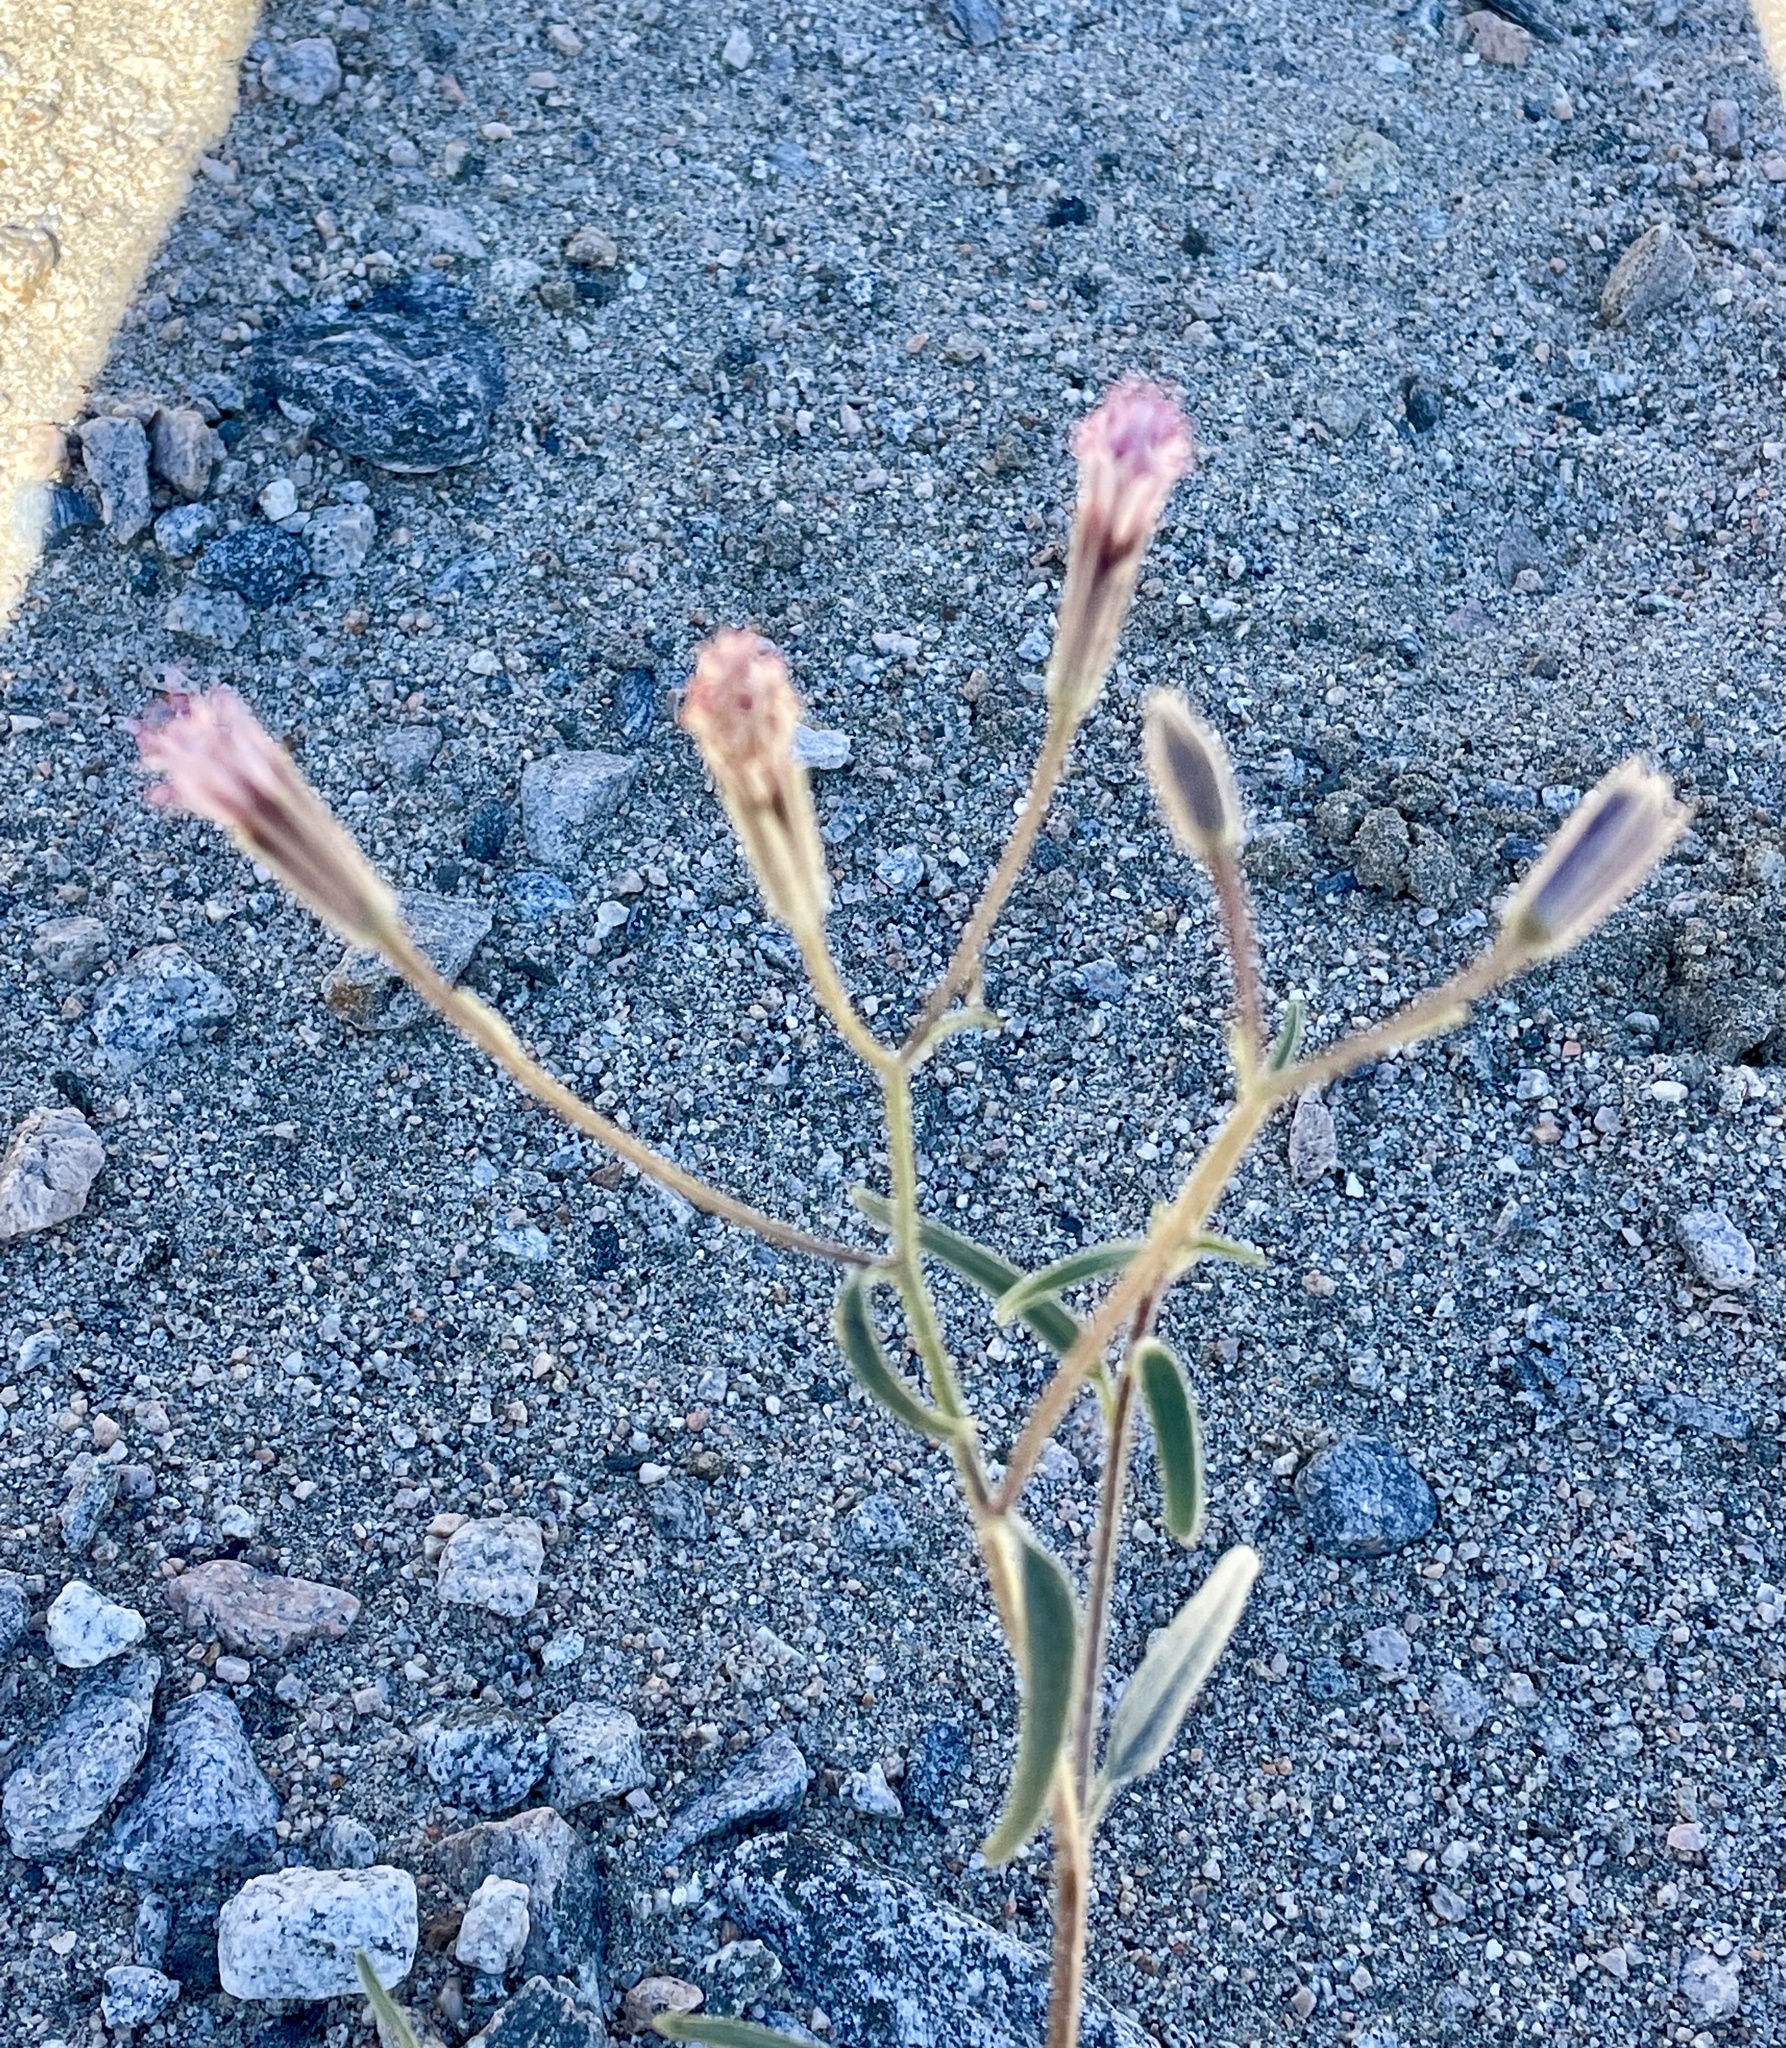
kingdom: Plantae
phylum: Tracheophyta
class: Magnoliopsida
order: Asterales
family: Asteraceae
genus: Palafoxia
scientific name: Palafoxia arida
